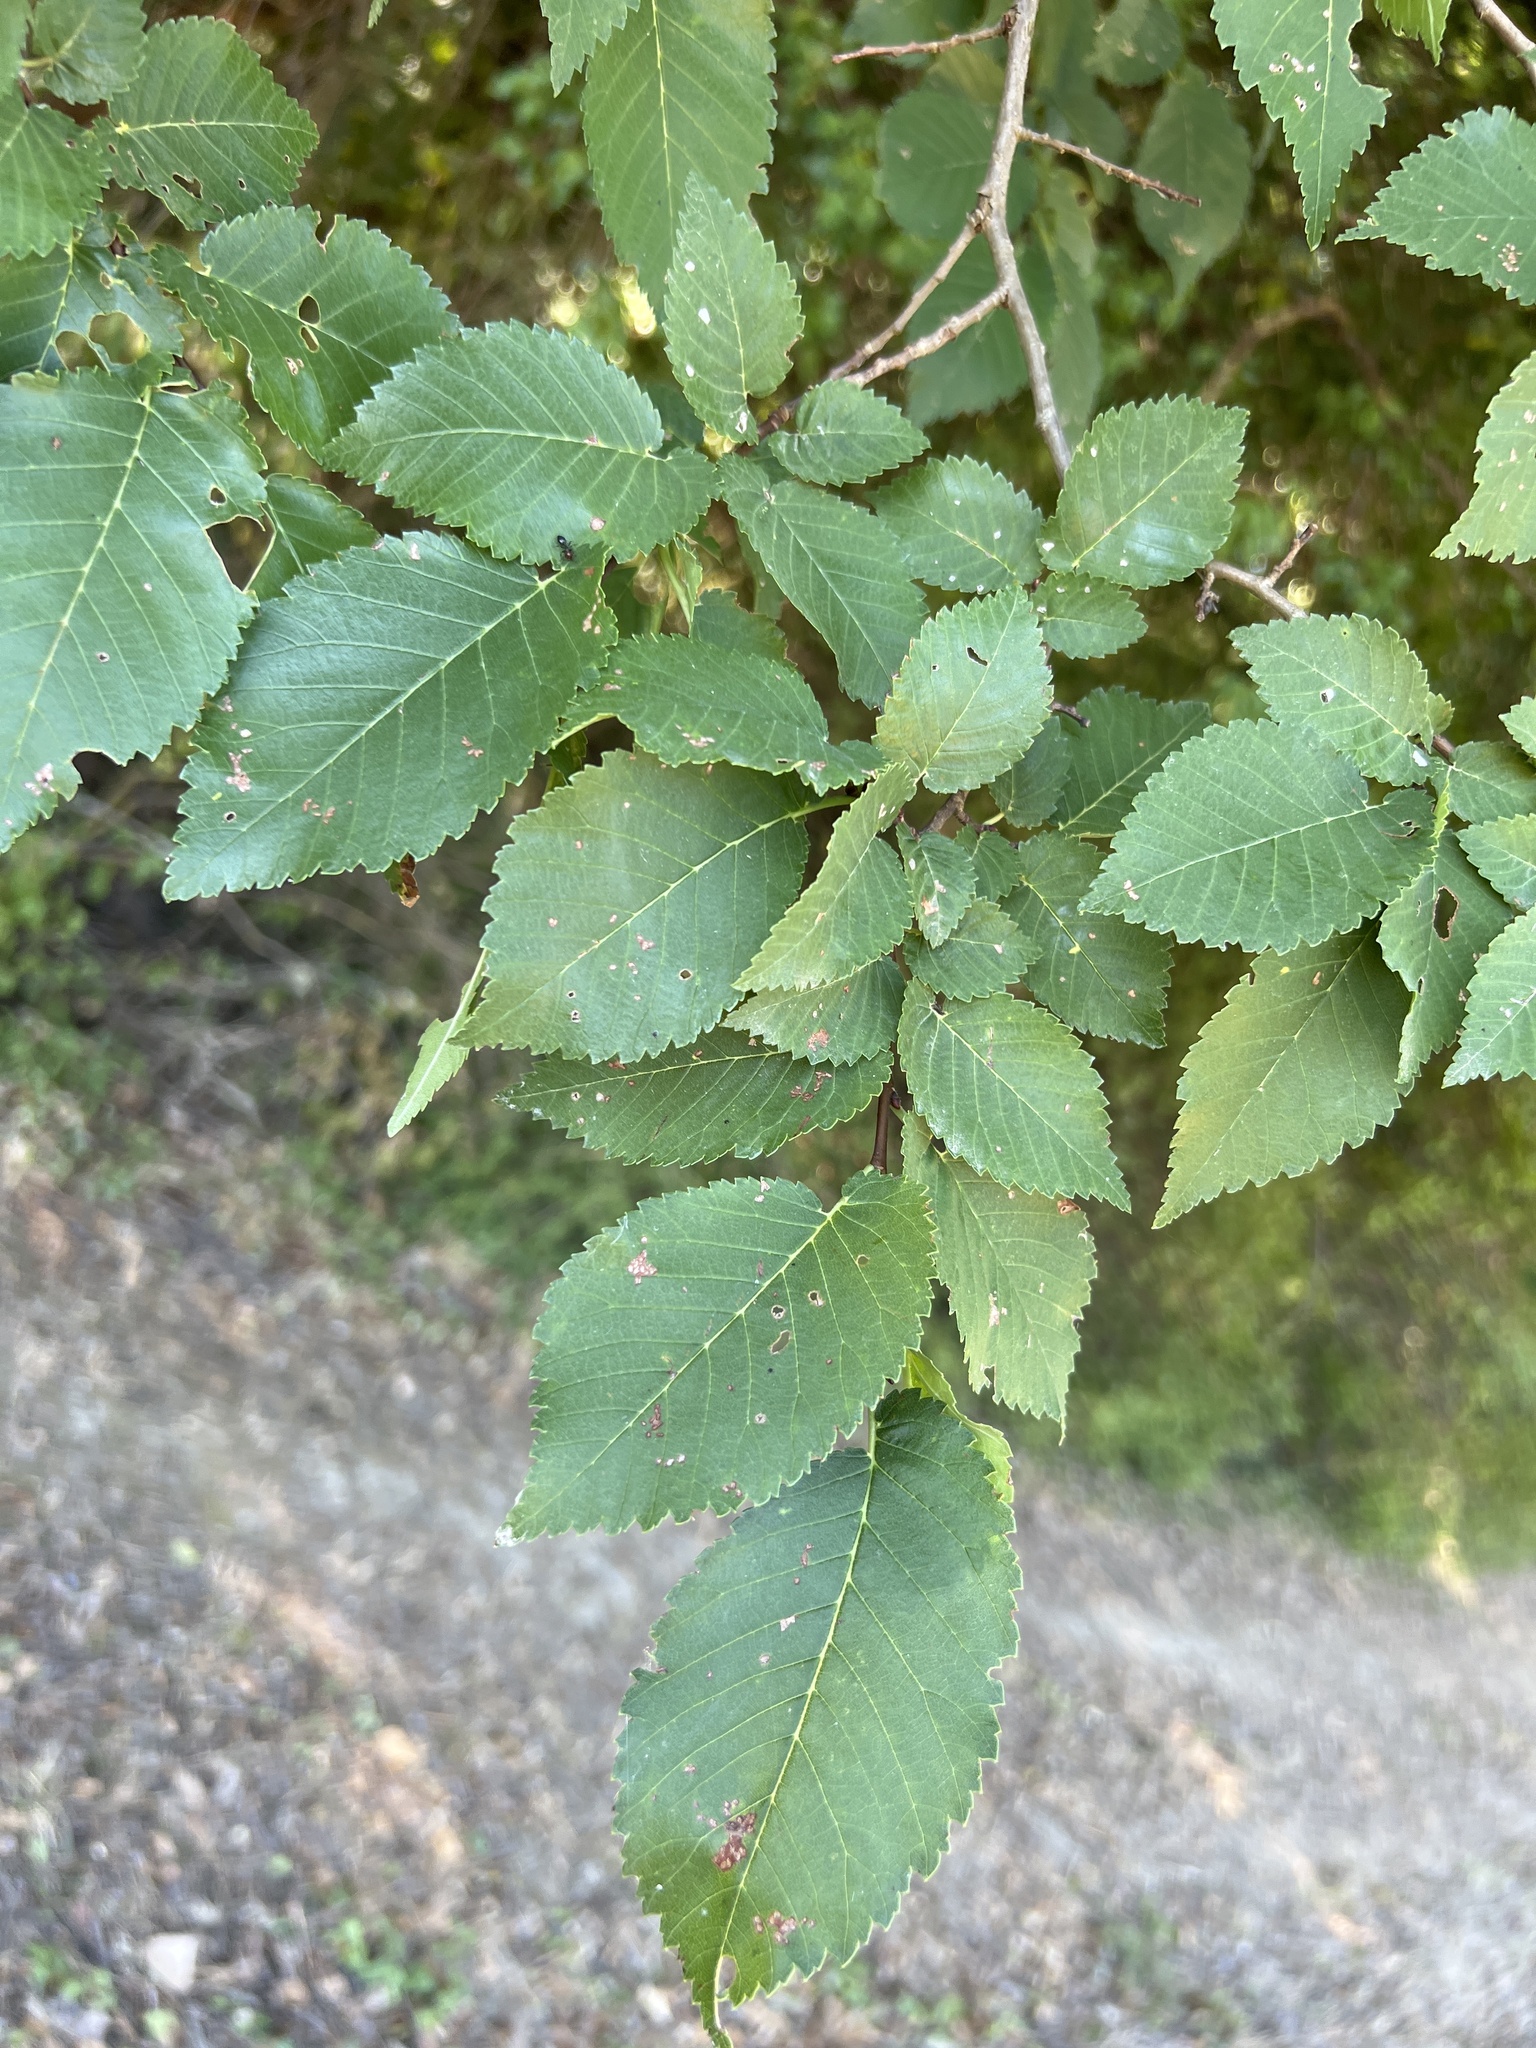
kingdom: Plantae
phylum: Tracheophyta
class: Magnoliopsida
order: Rosales
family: Ulmaceae
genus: Ulmus
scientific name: Ulmus minor
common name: Small-leaved elm
